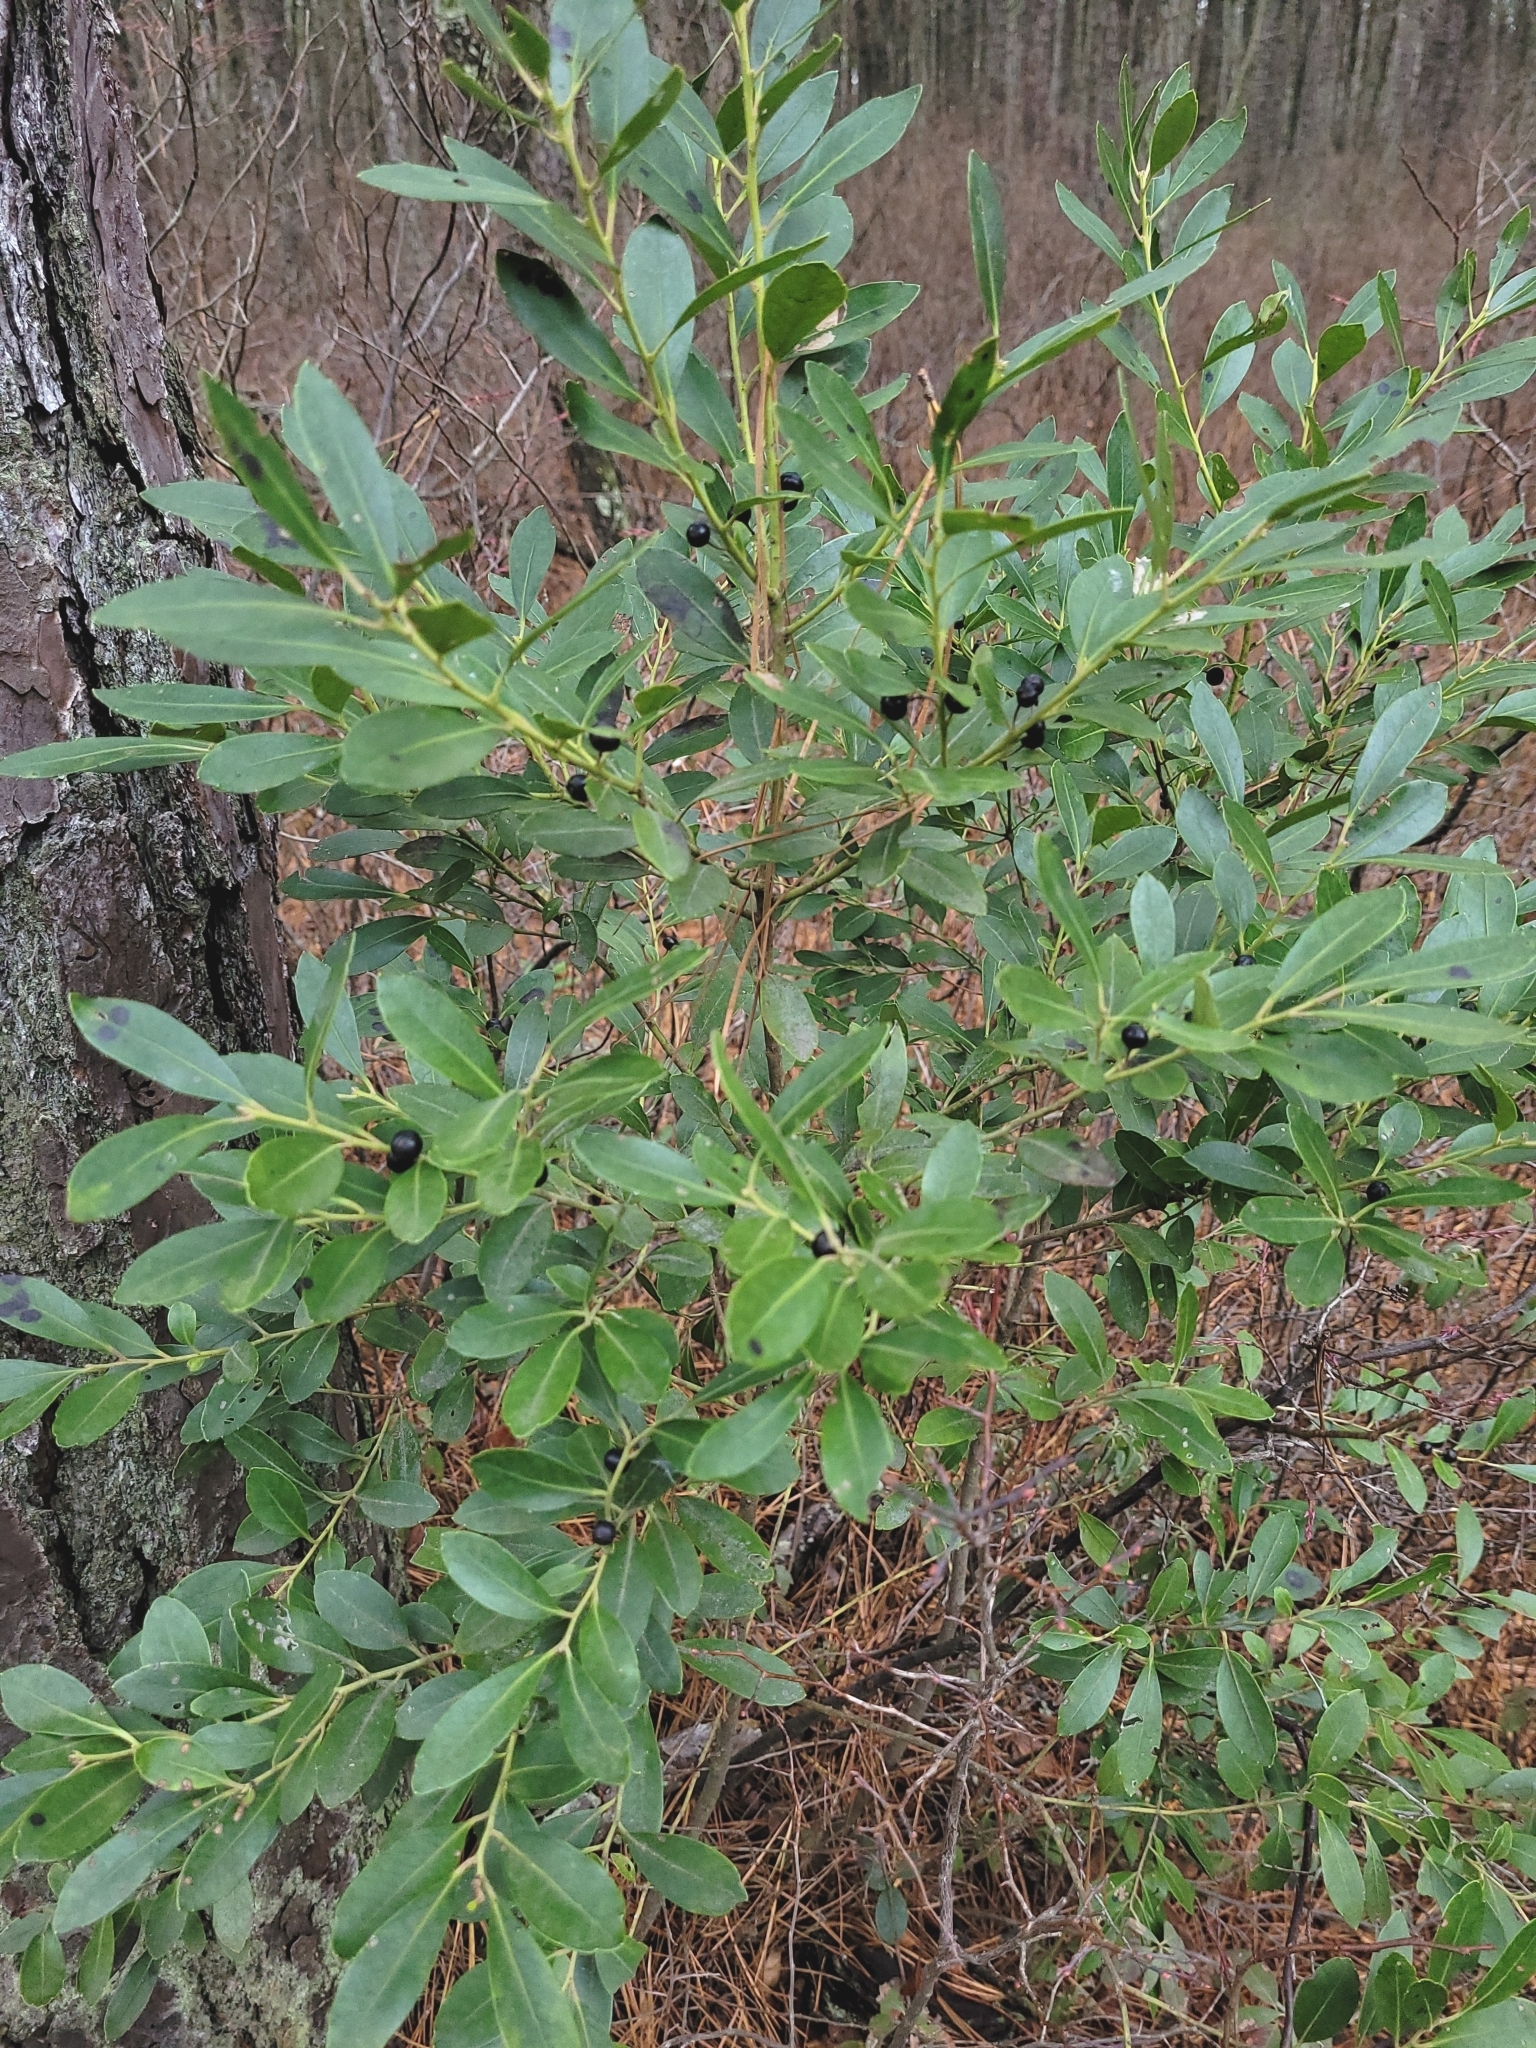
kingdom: Plantae
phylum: Tracheophyta
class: Magnoliopsida
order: Aquifoliales
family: Aquifoliaceae
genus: Ilex
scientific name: Ilex glabra
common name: Bitter gallberry
